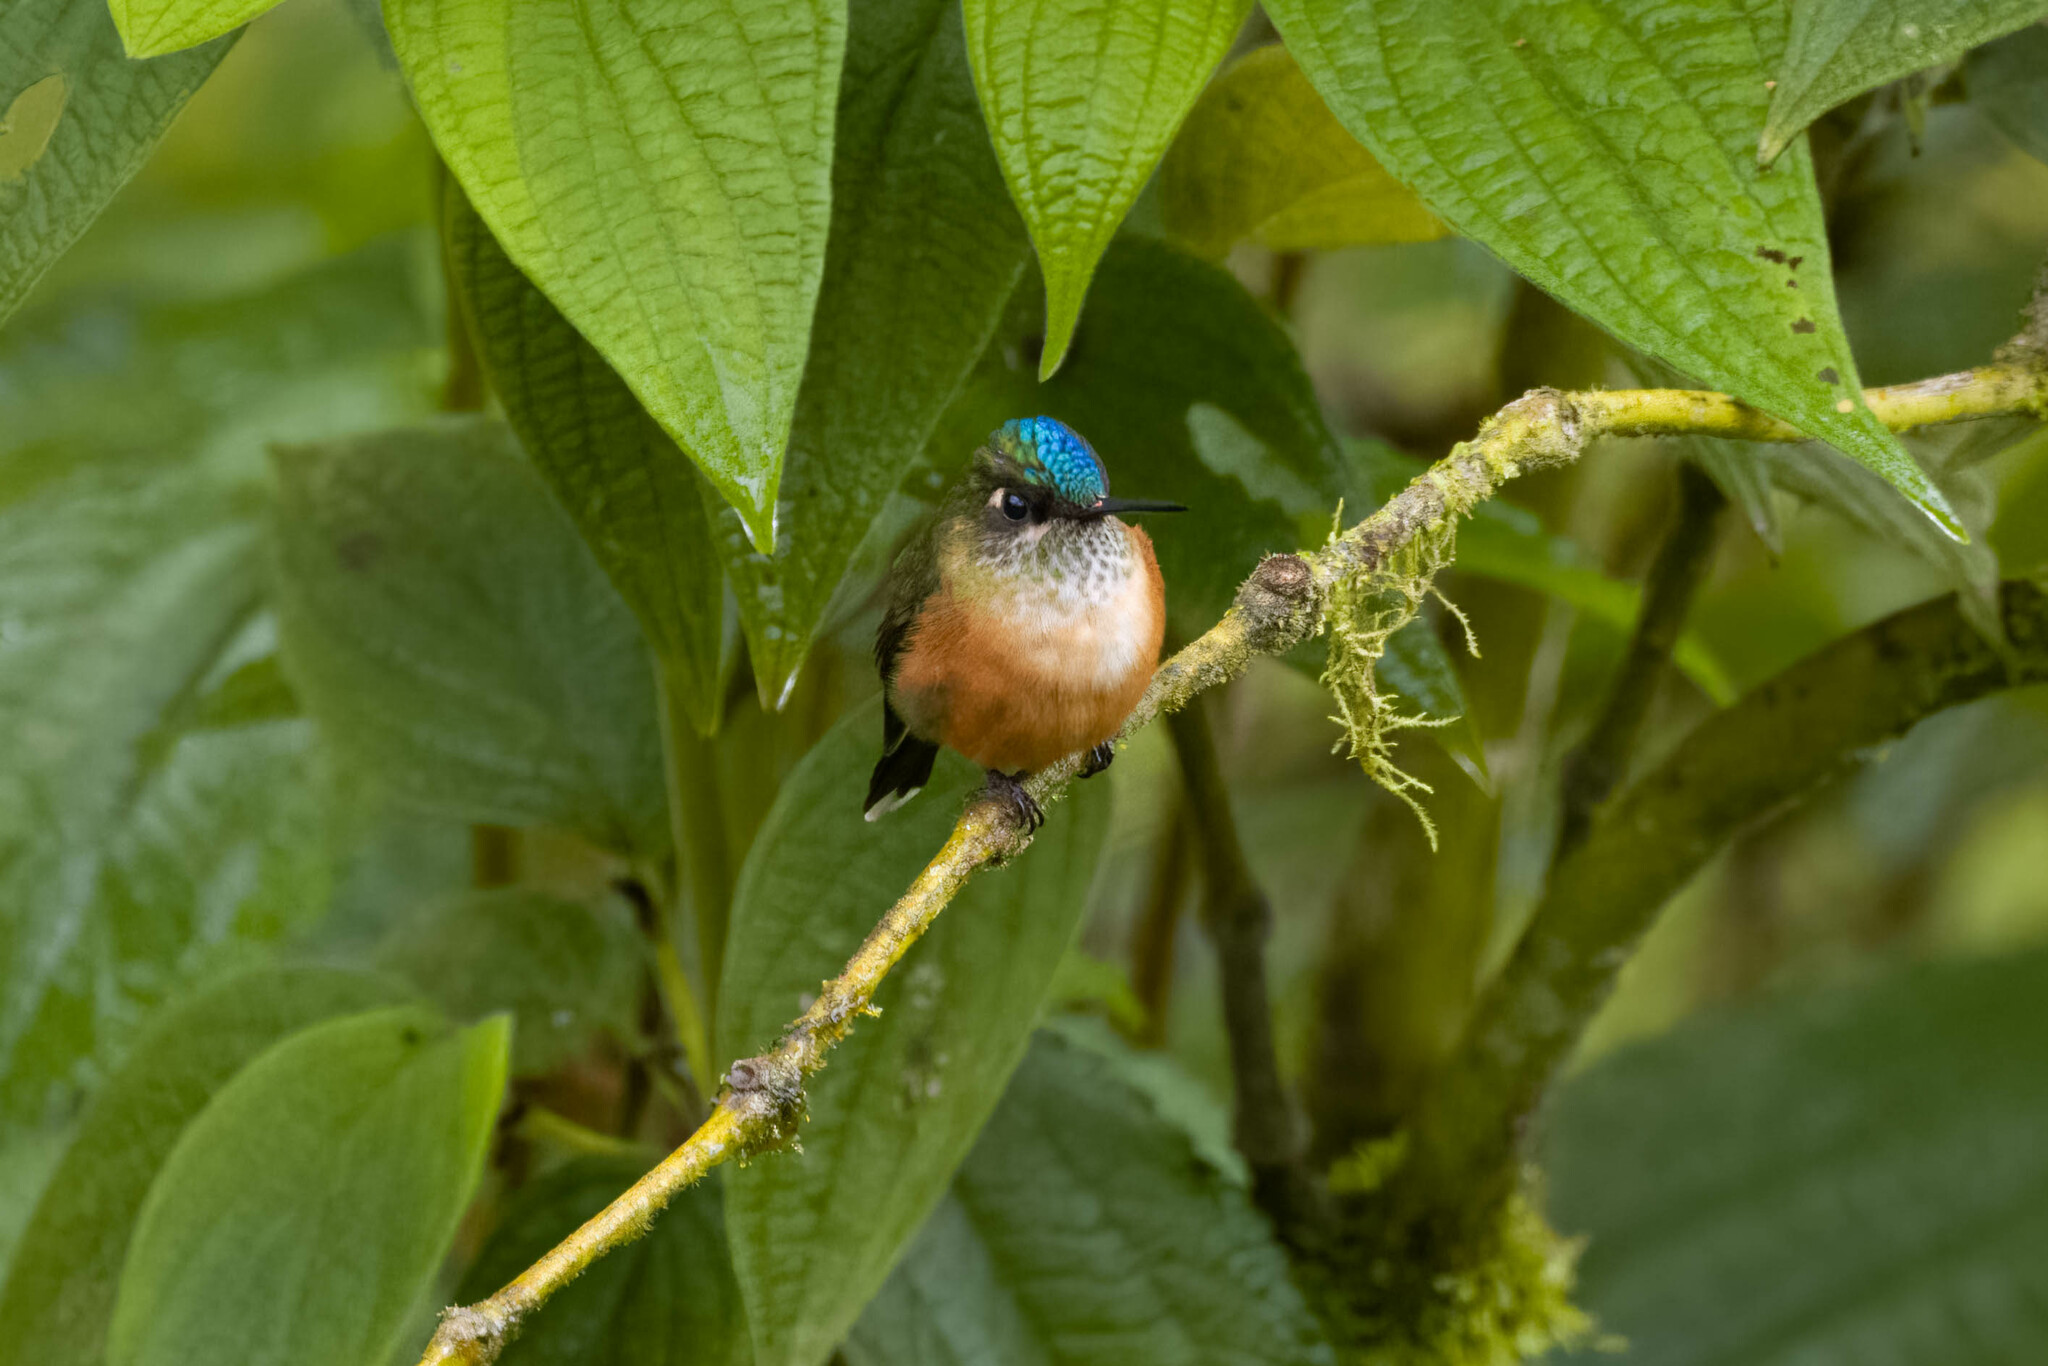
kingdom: Animalia
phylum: Chordata
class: Aves
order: Apodiformes
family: Trochilidae
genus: Aglaiocercus
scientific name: Aglaiocercus coelestis
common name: Violet-tailed sylph
